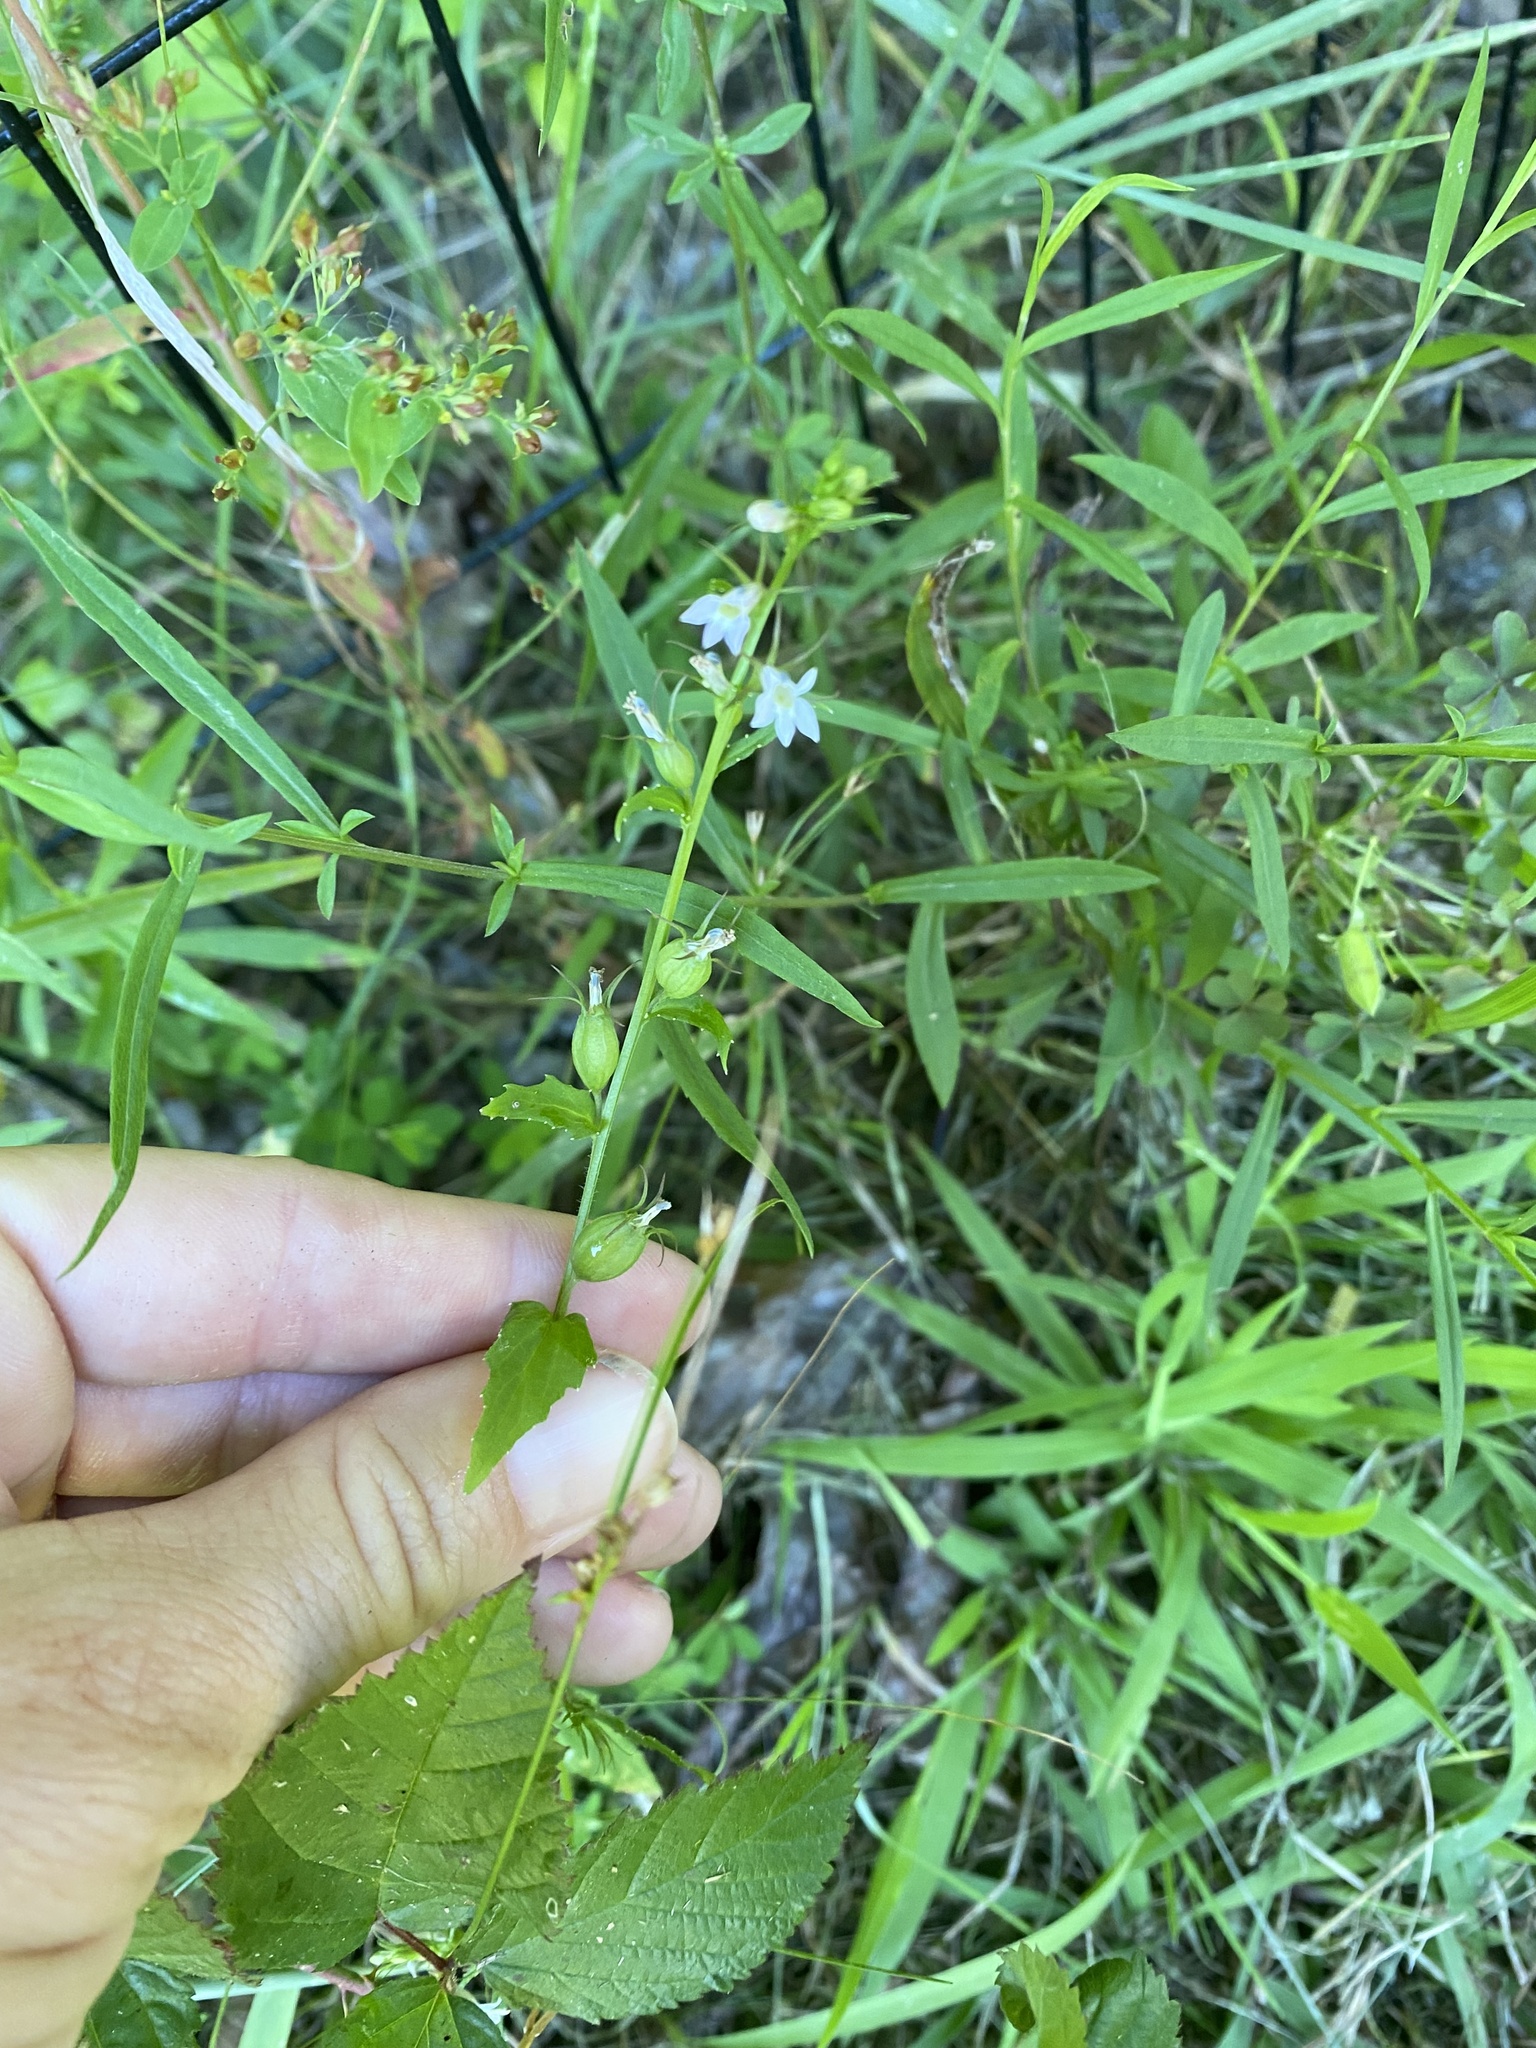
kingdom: Plantae
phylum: Tracheophyta
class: Magnoliopsida
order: Asterales
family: Campanulaceae
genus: Lobelia
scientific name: Lobelia inflata
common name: Indian tobacco
